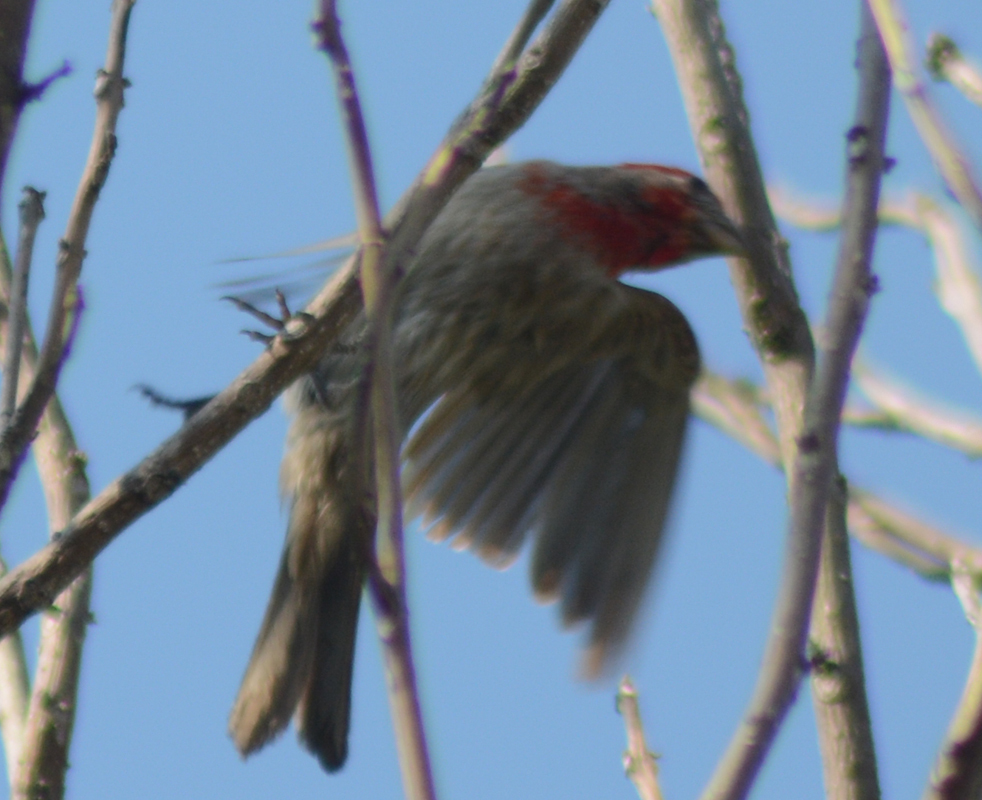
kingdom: Animalia
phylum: Chordata
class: Aves
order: Passeriformes
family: Fringillidae
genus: Haemorhous
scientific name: Haemorhous mexicanus
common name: House finch
